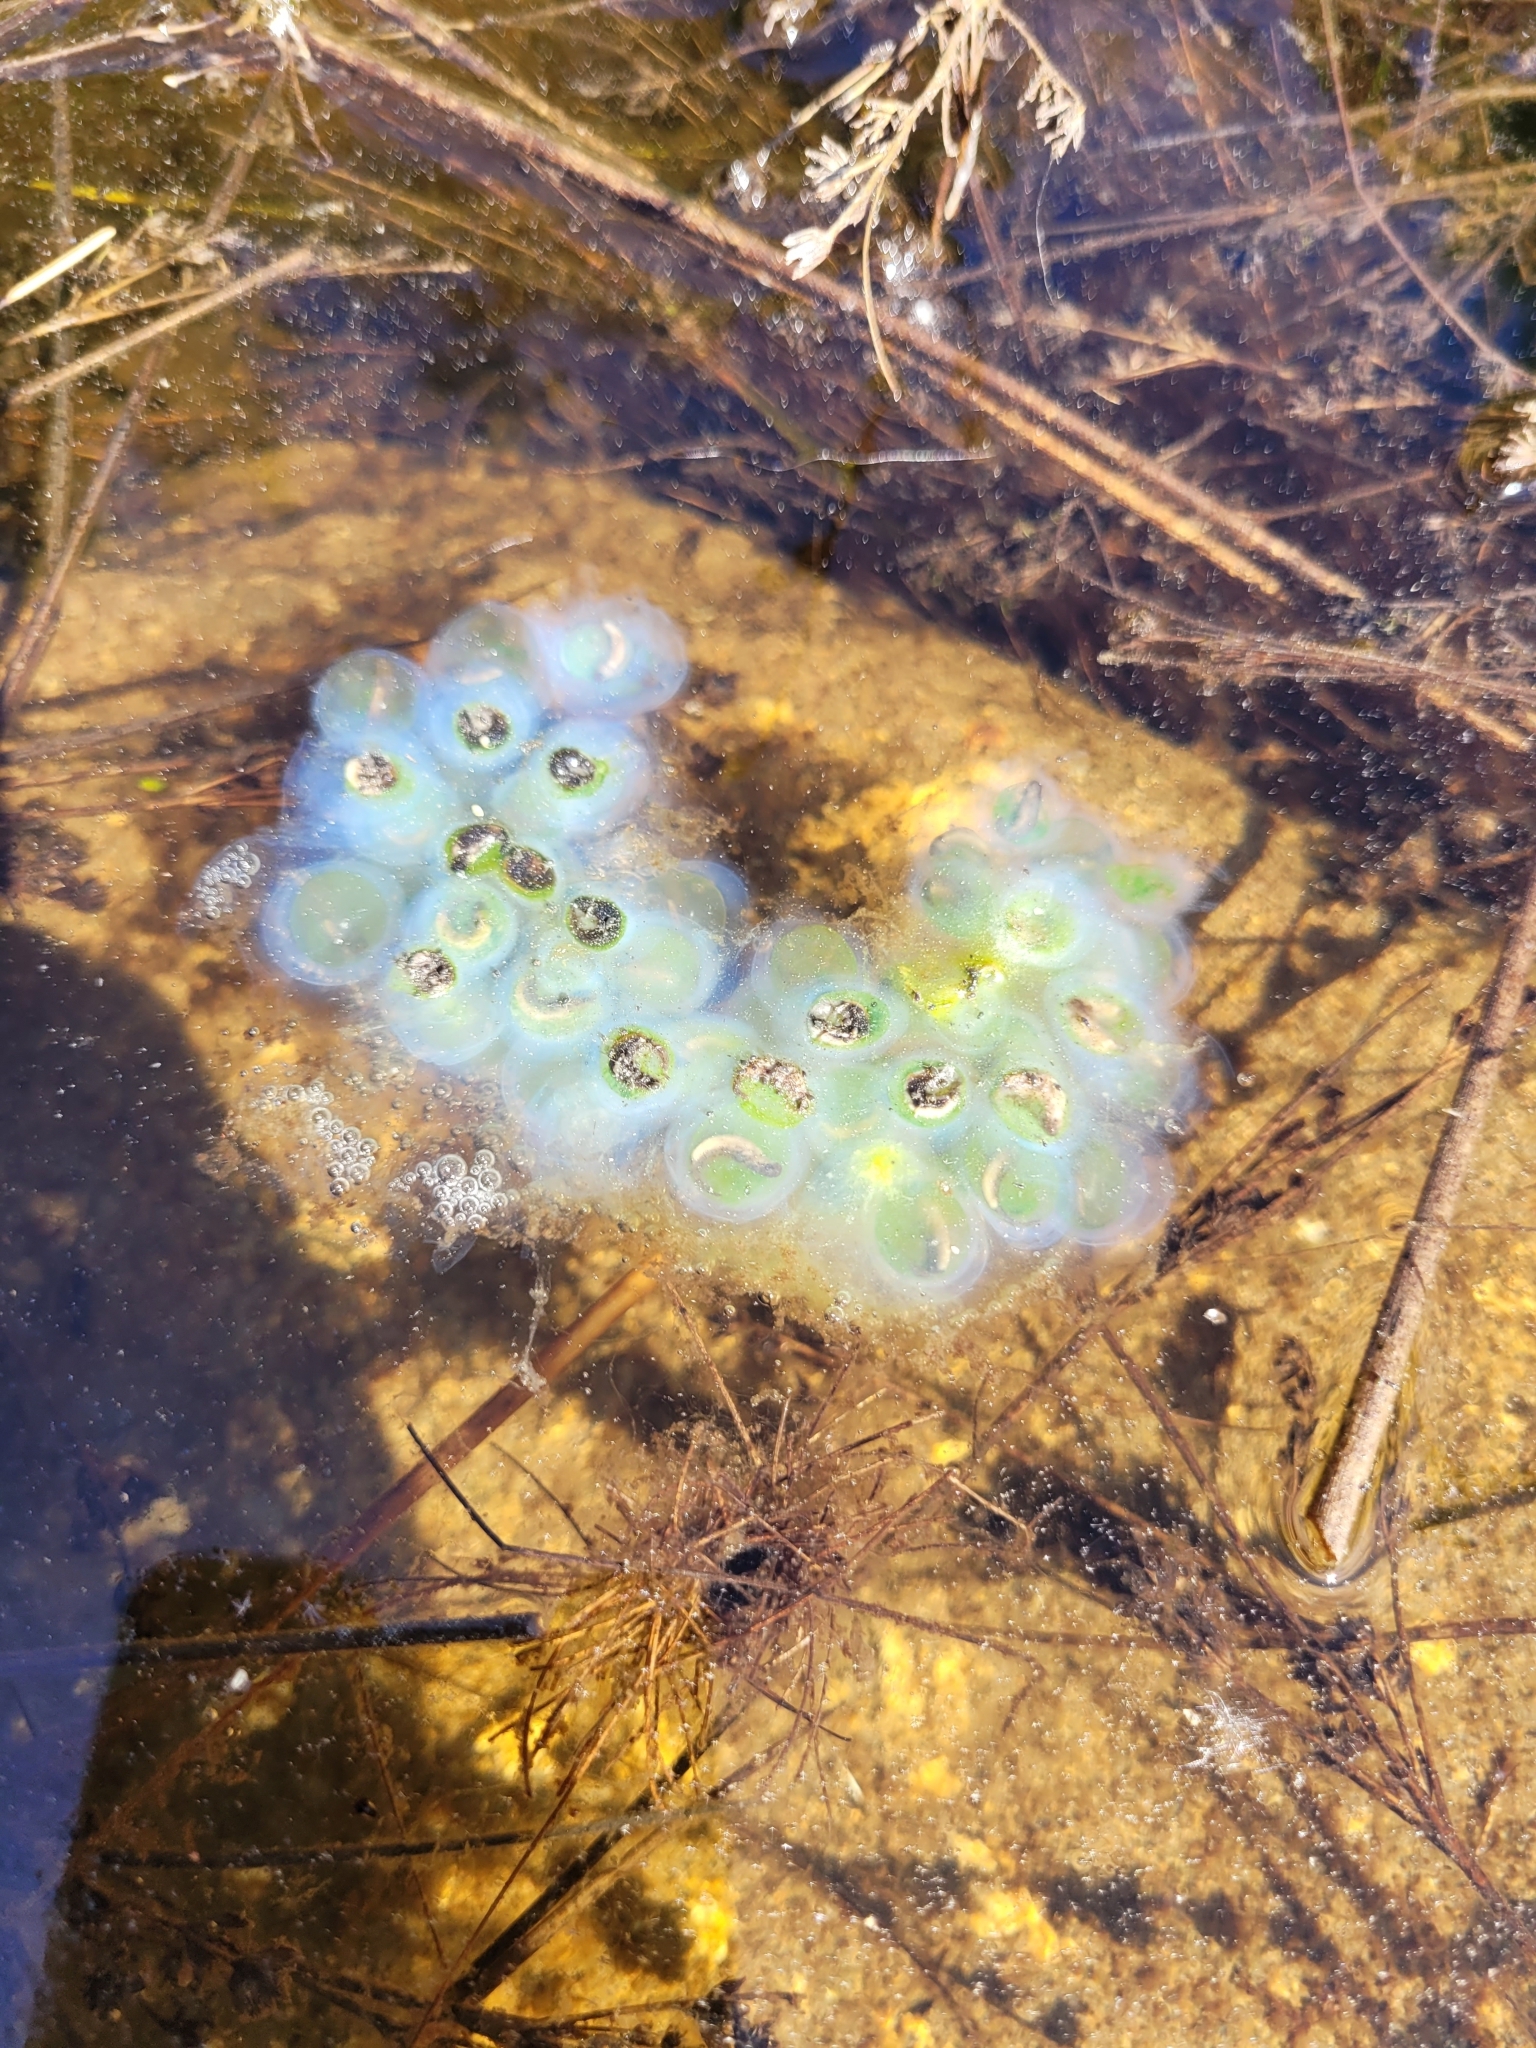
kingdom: Animalia
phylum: Chordata
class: Amphibia
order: Caudata
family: Ambystomatidae
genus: Ambystoma
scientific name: Ambystoma maculatum
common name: Spotted salamander
